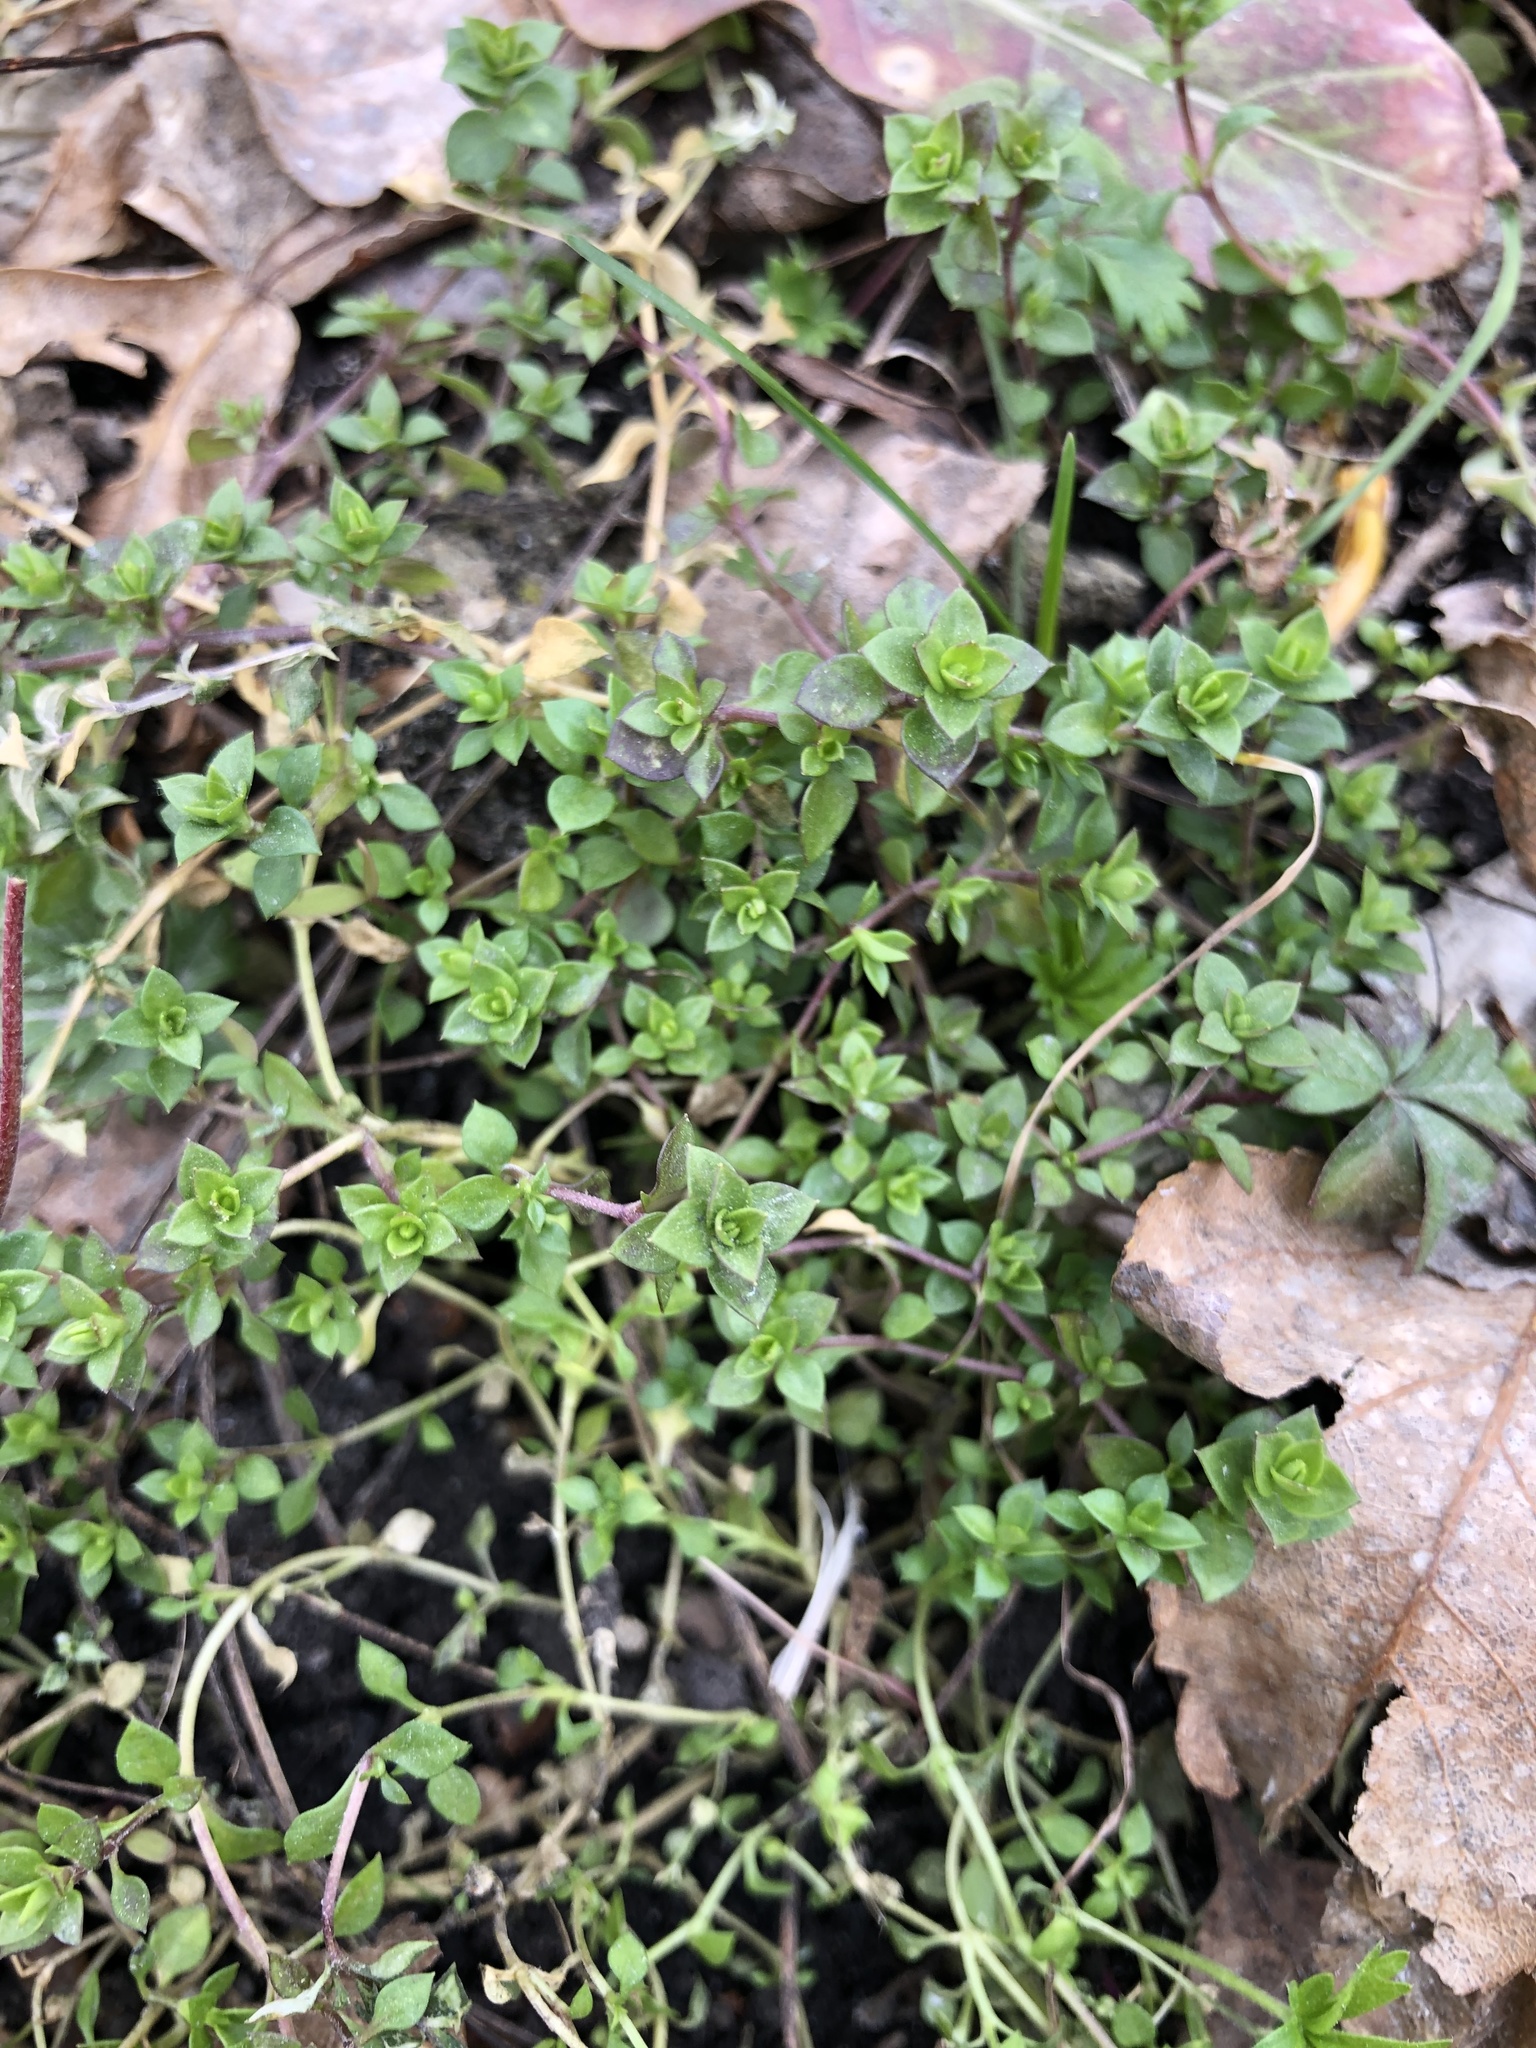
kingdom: Plantae
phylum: Tracheophyta
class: Magnoliopsida
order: Caryophyllales
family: Caryophyllaceae
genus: Arenaria
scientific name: Arenaria serpyllifolia
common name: Thyme-leaved sandwort
